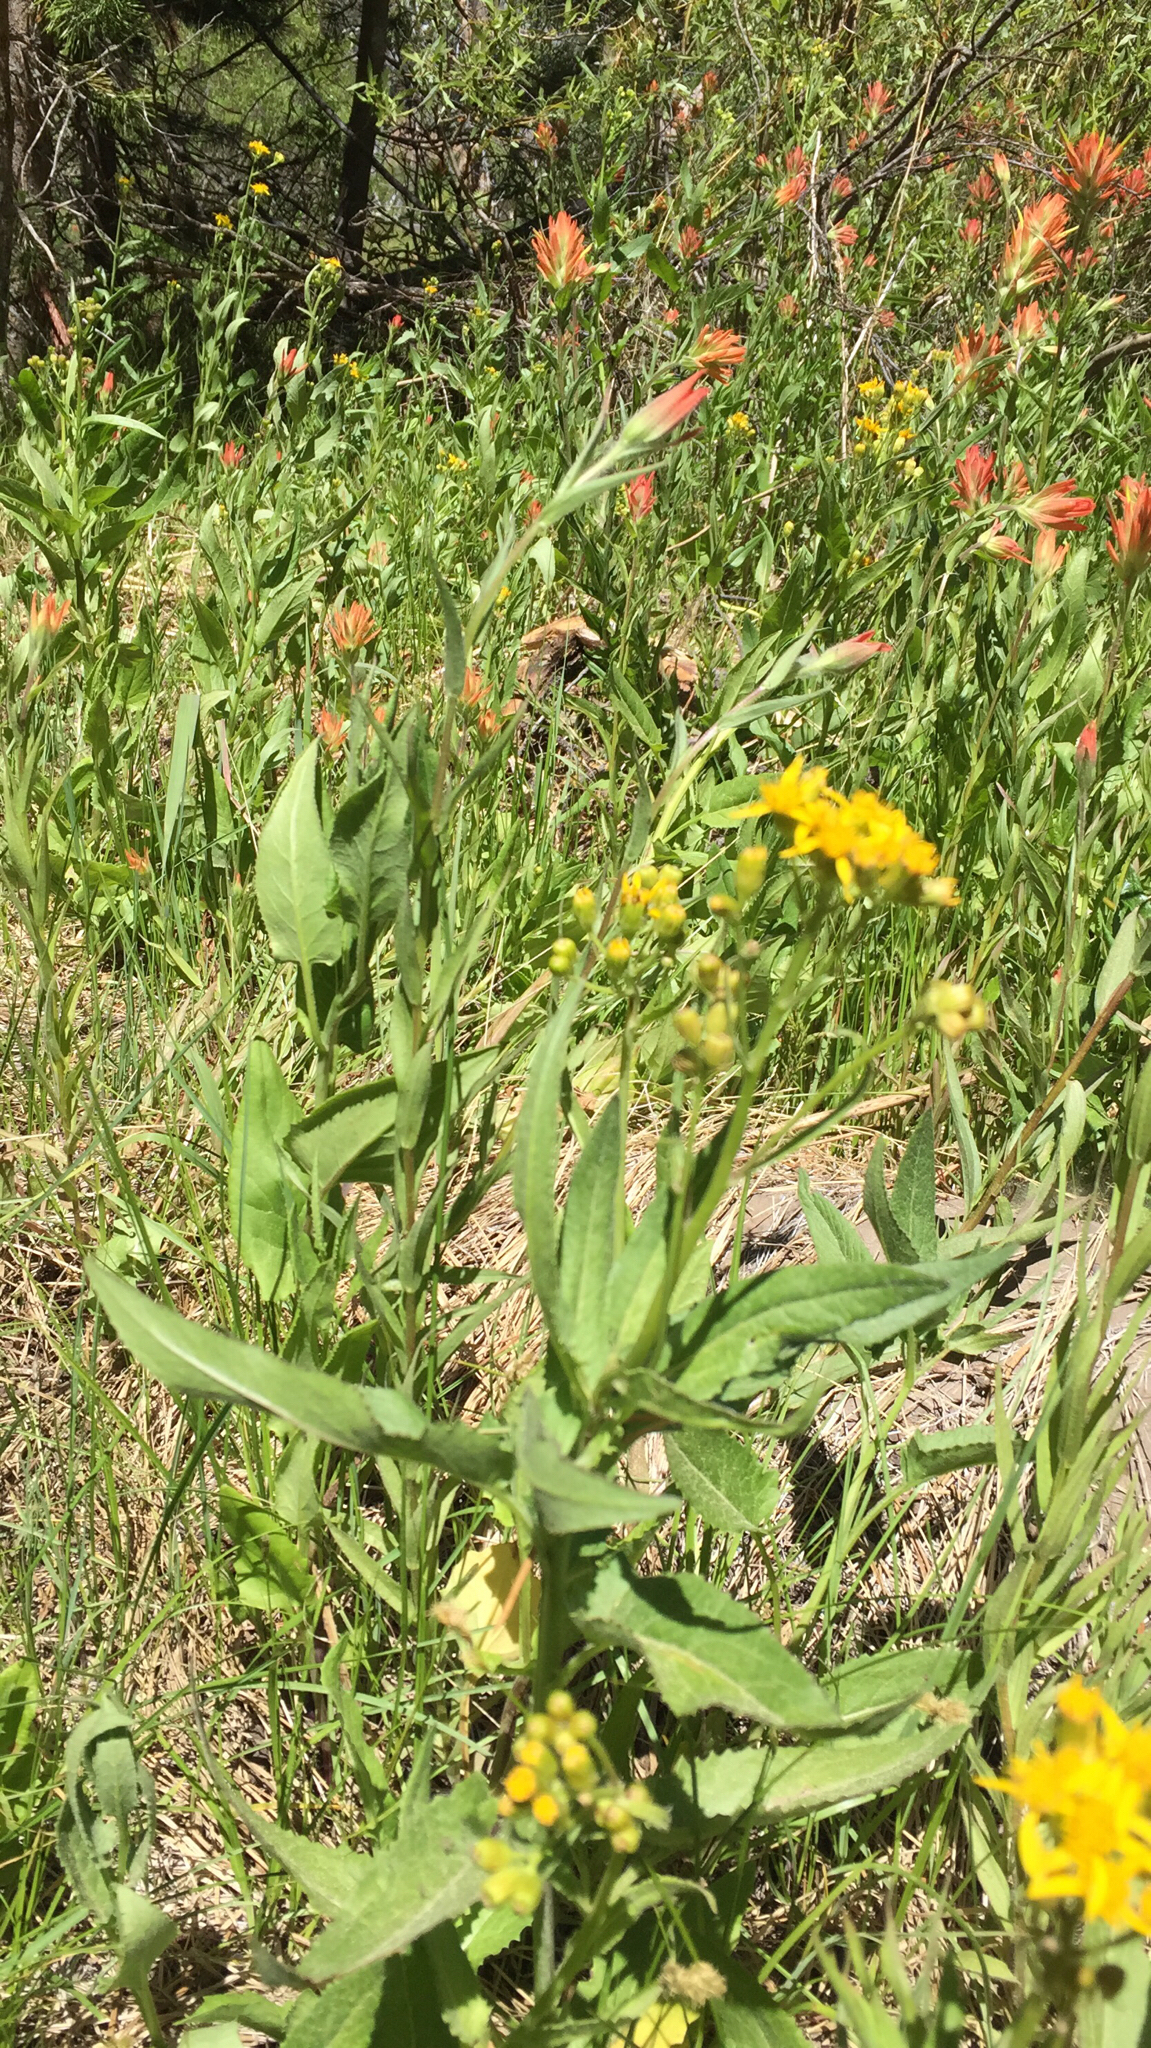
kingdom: Plantae
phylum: Tracheophyta
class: Magnoliopsida
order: Asterales
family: Asteraceae
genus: Senecio
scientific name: Senecio triangularis
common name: Arrowleaf butterweed
